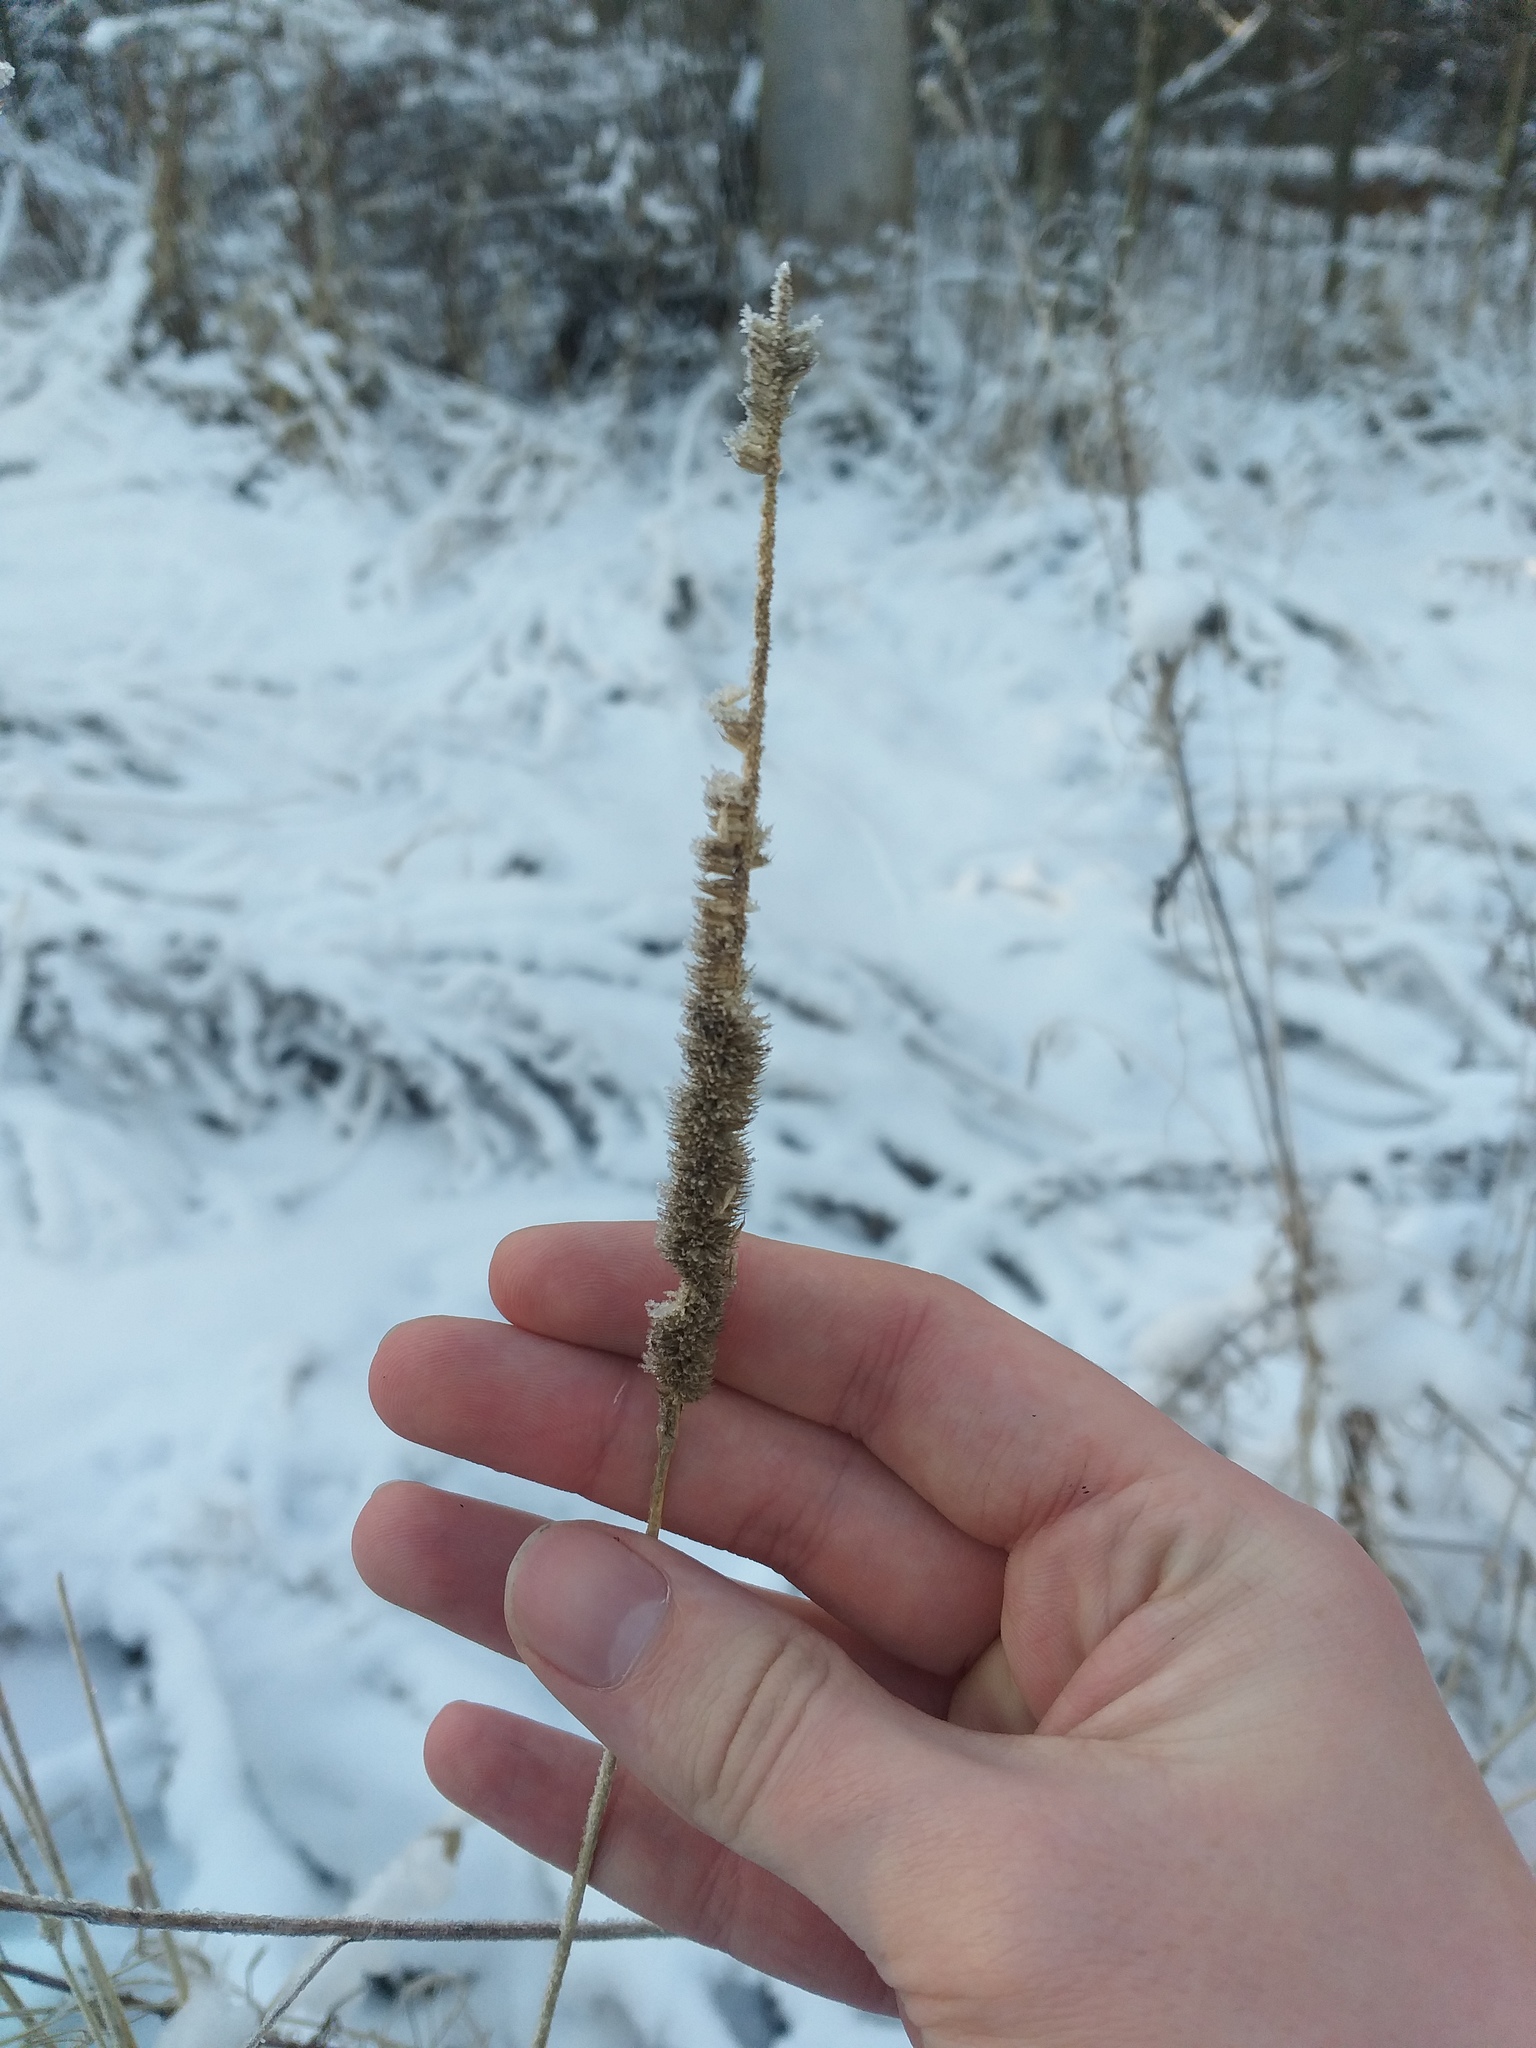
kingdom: Plantae
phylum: Tracheophyta
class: Liliopsida
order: Poales
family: Poaceae
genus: Phleum
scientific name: Phleum pratense
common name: Timothy grass
